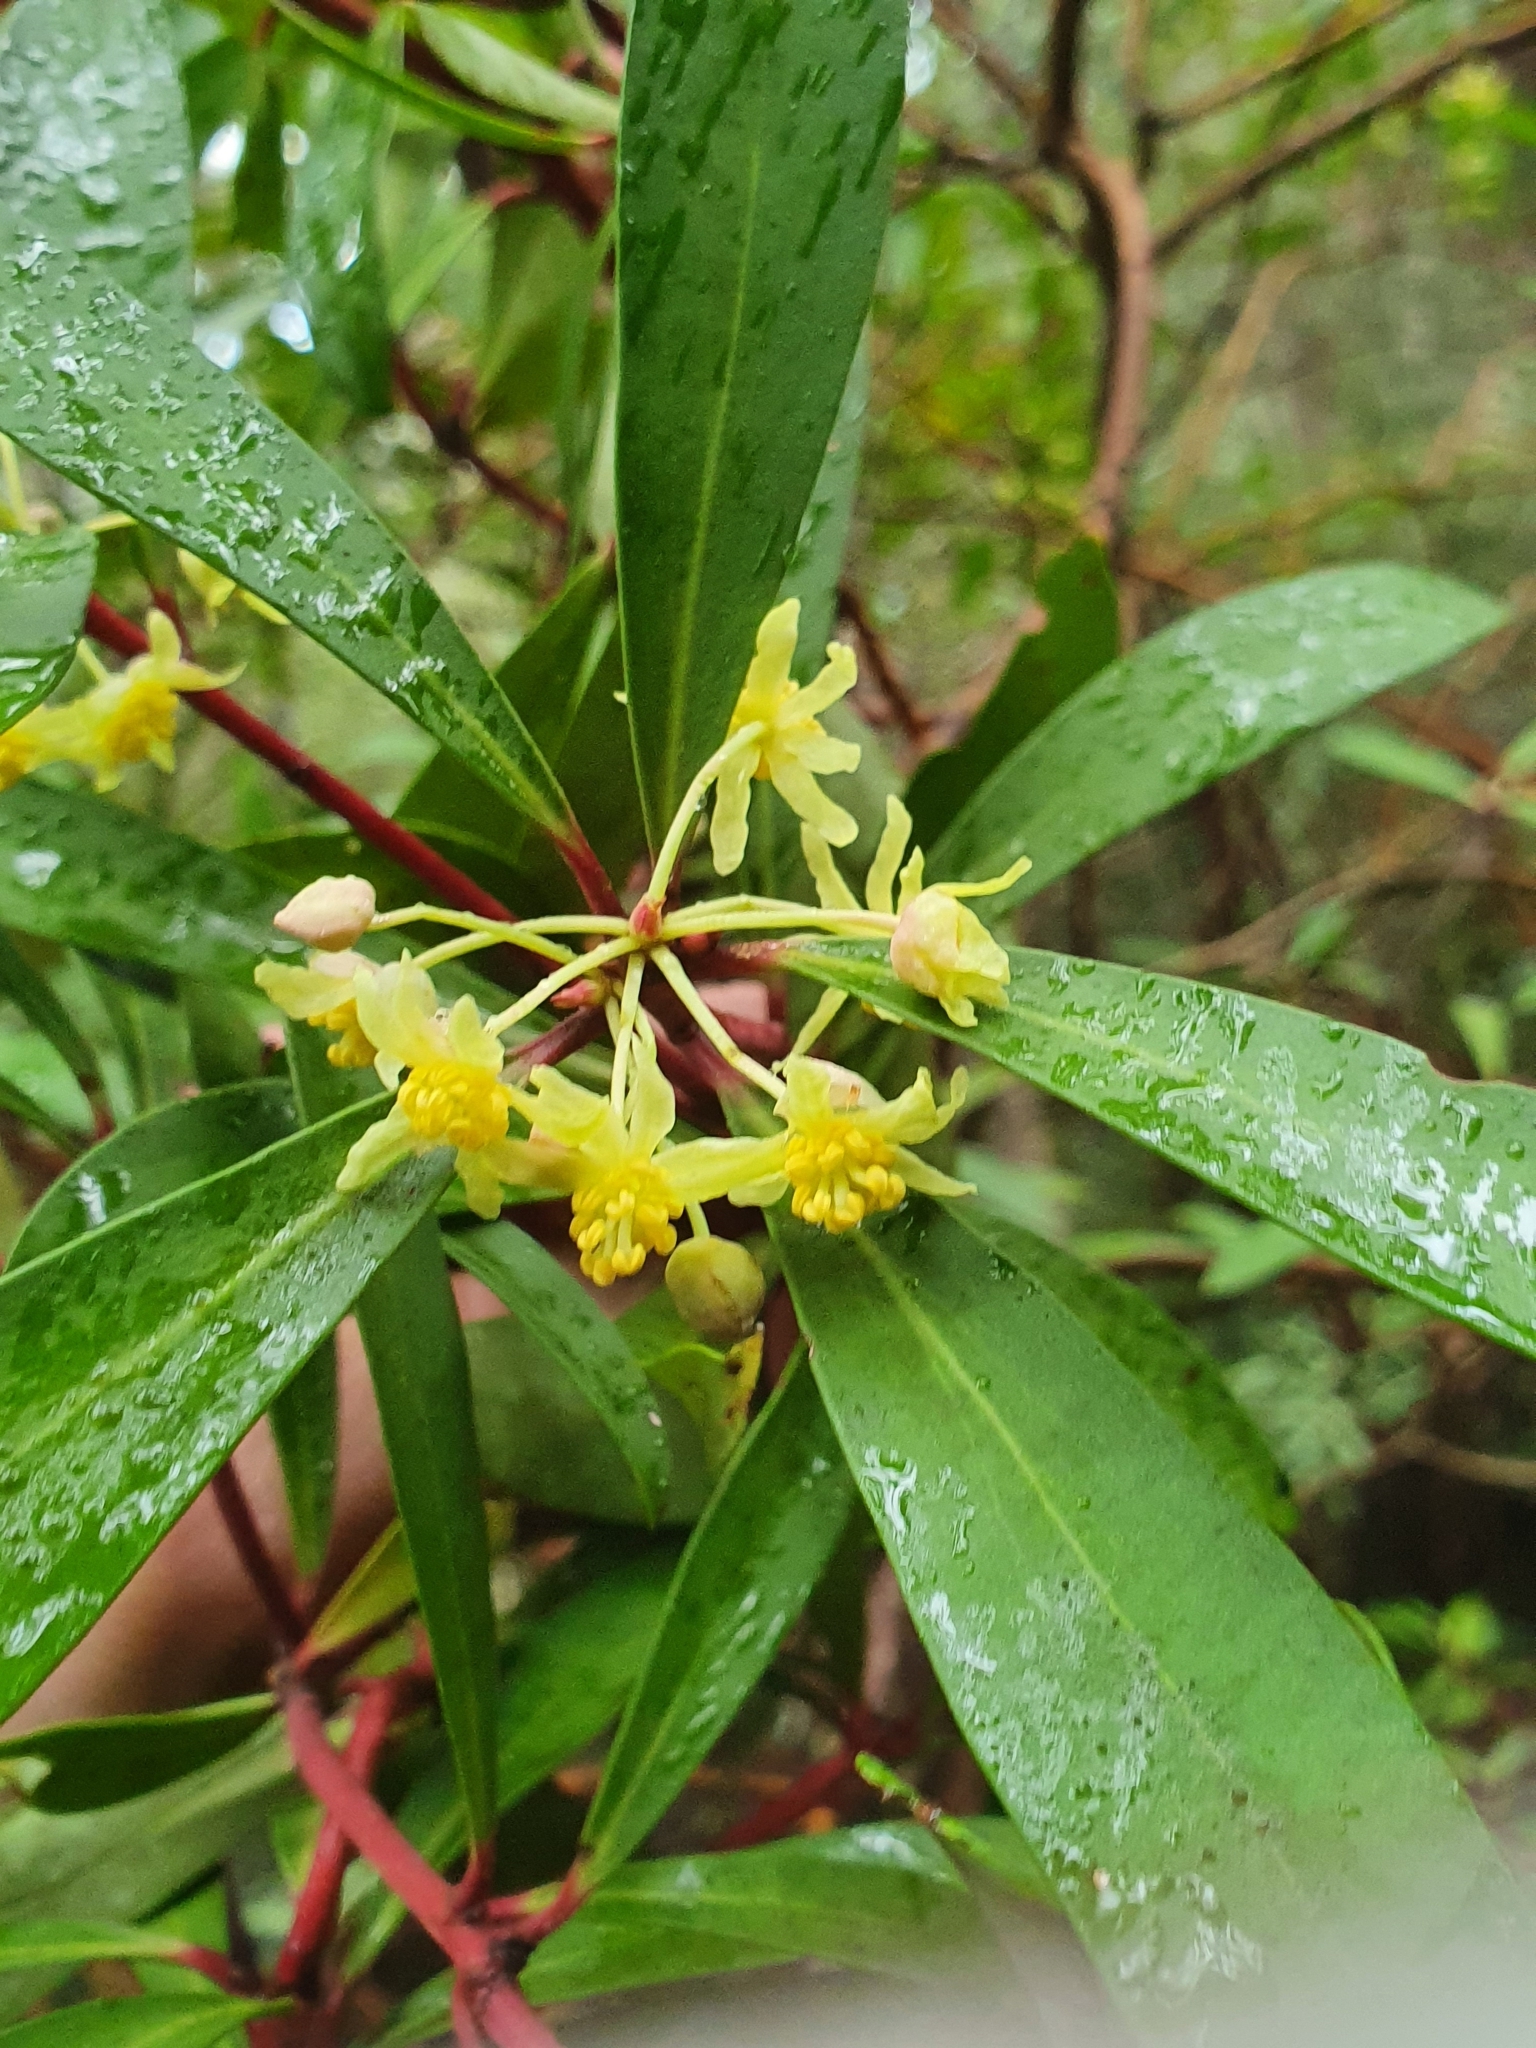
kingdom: Plantae
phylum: Tracheophyta
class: Magnoliopsida
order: Canellales
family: Winteraceae
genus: Drimys
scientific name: Drimys aromatica
